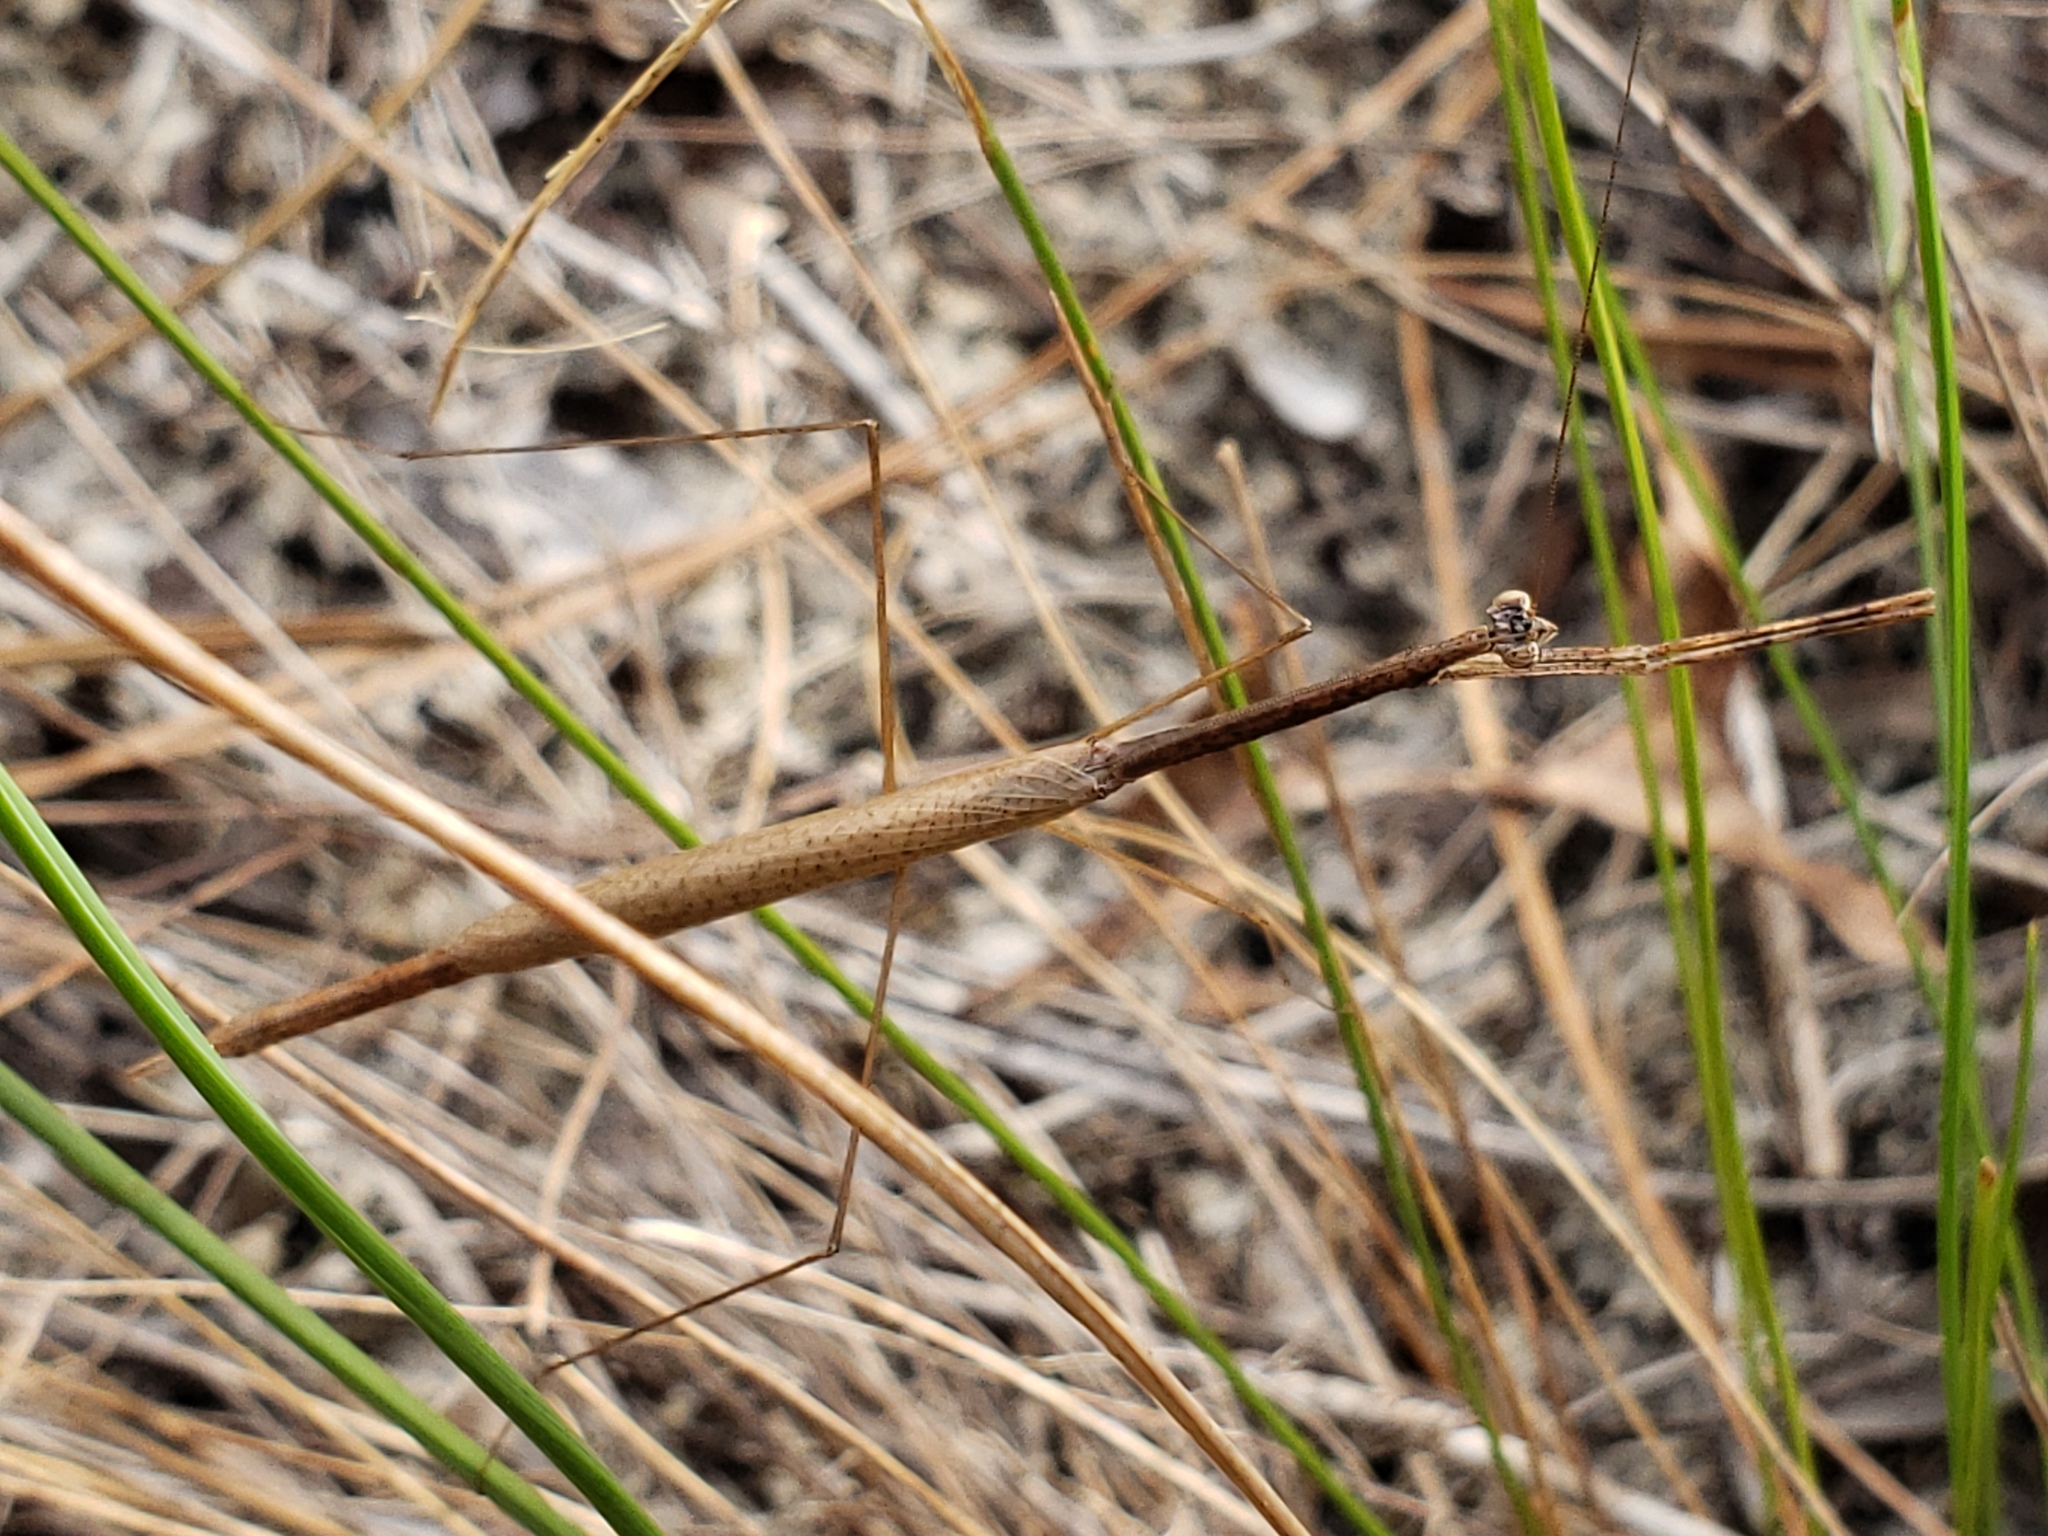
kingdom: Animalia
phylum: Arthropoda
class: Insecta
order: Mantodea
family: Thespidae
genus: Thesprotia
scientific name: Thesprotia graminis
